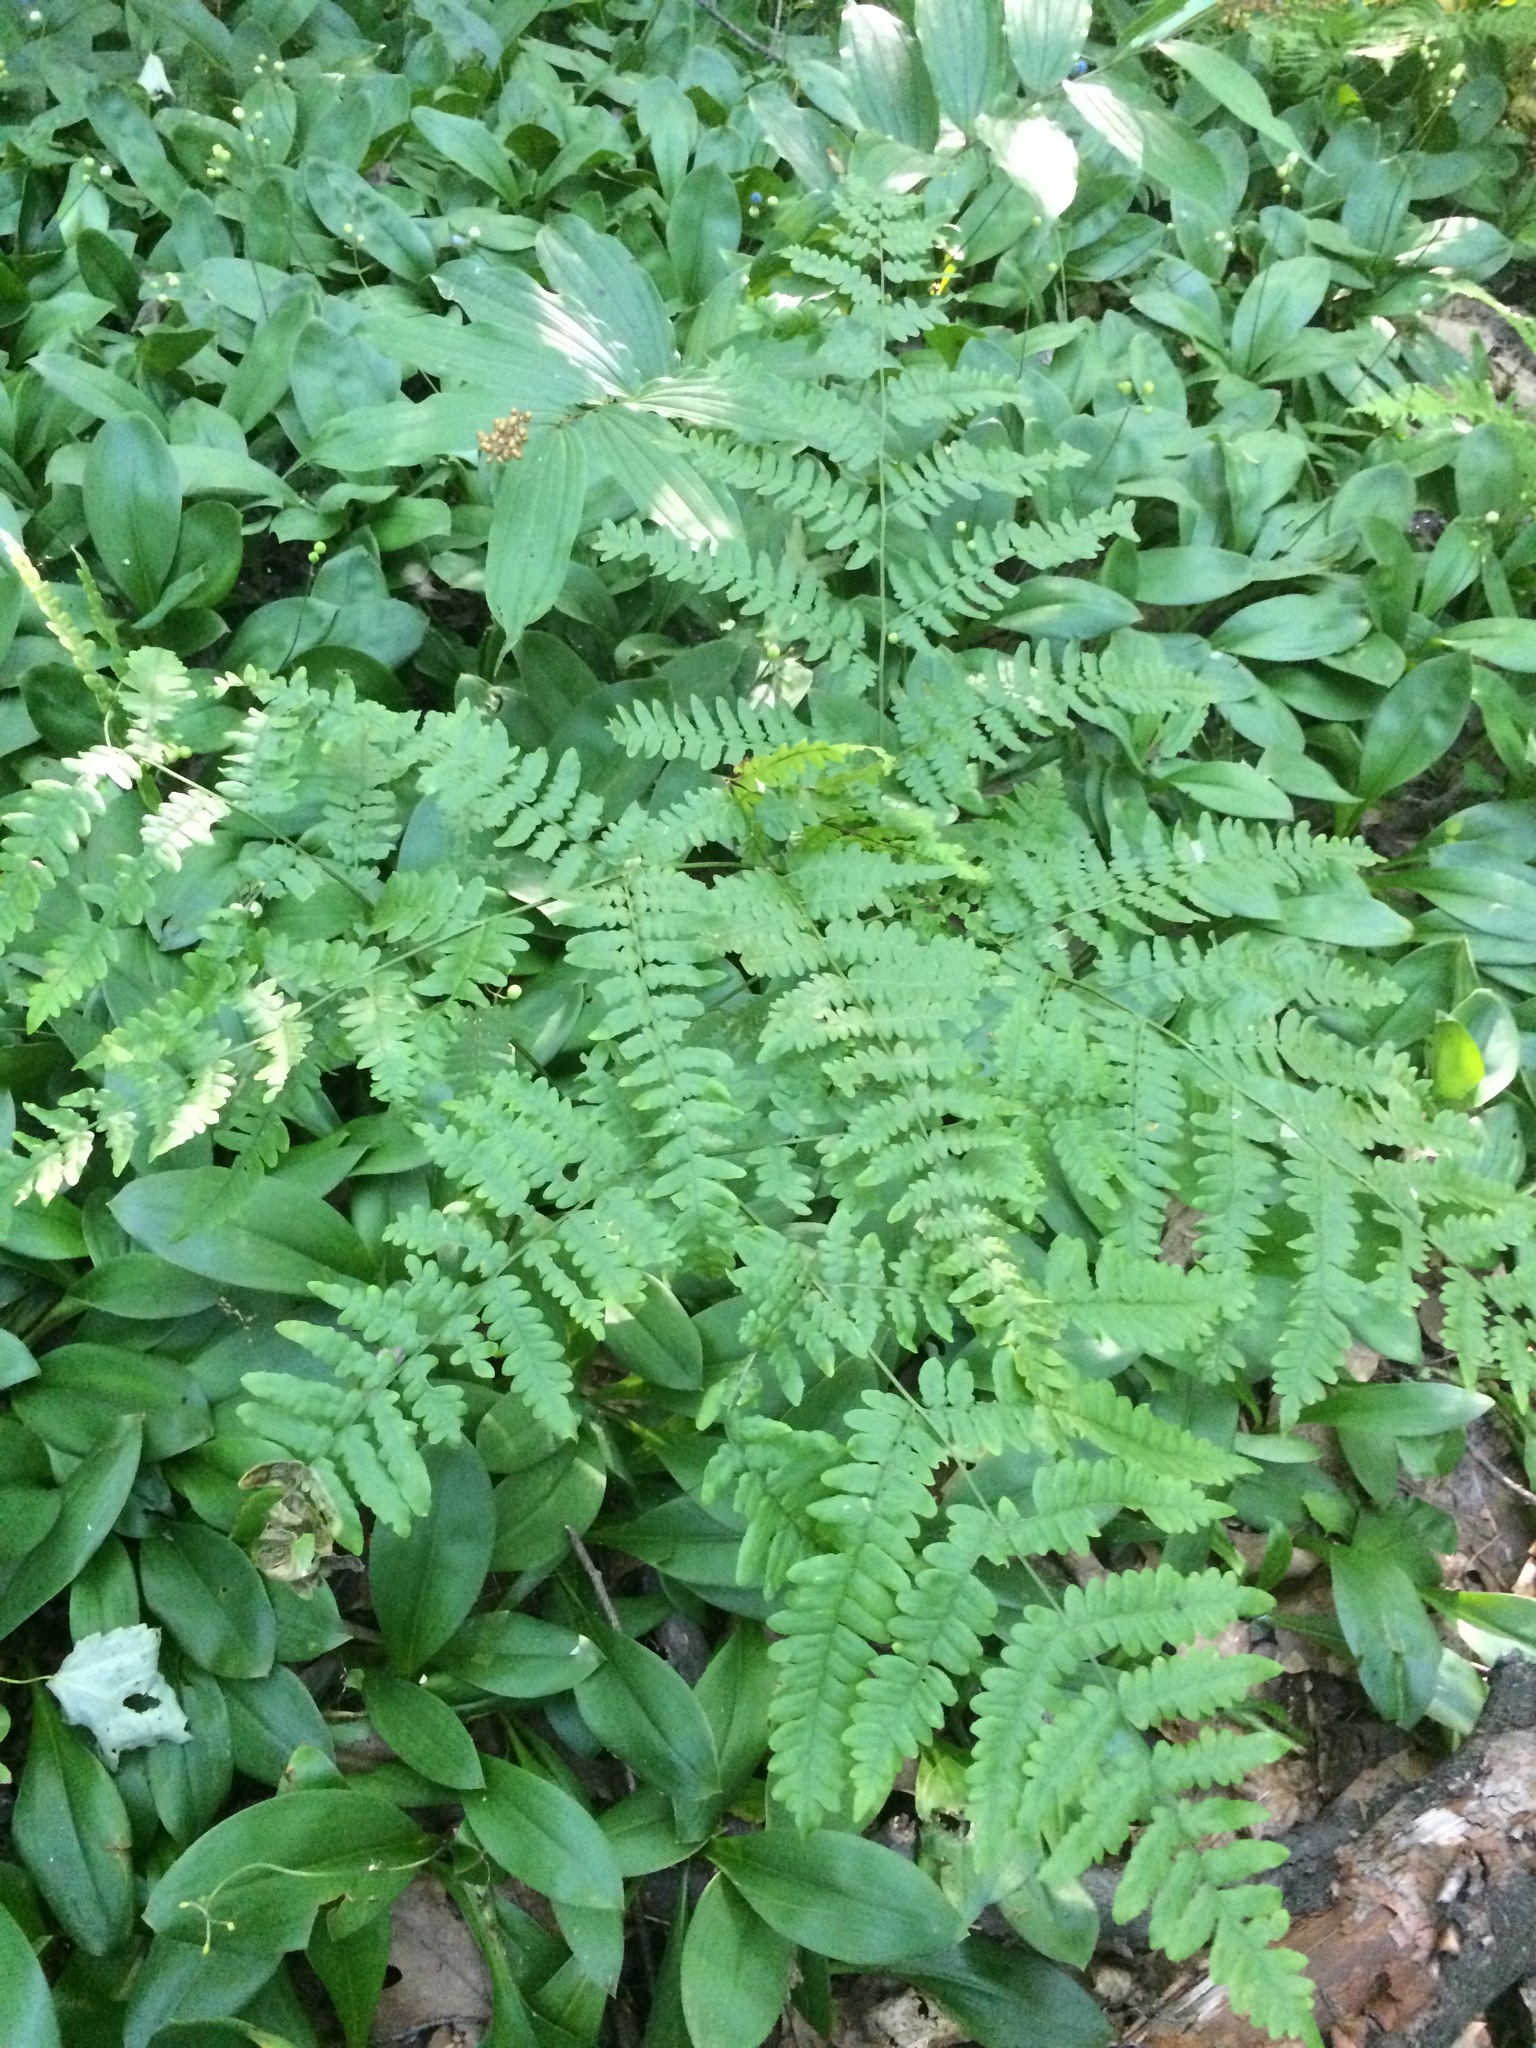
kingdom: Plantae
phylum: Tracheophyta
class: Polypodiopsida
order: Polypodiales
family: Dennstaedtiaceae
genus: Pteridium
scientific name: Pteridium aquilinum
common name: Bracken
